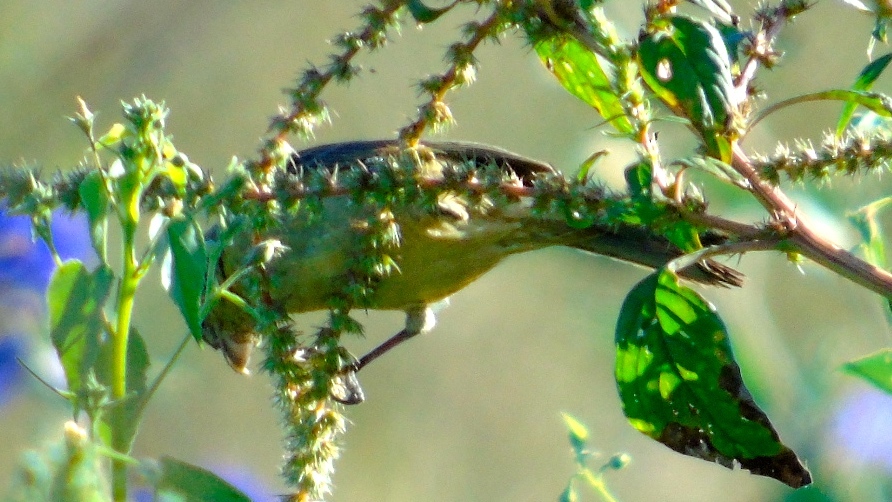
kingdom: Animalia
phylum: Chordata
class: Aves
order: Passeriformes
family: Fringillidae
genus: Spinus
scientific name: Spinus psaltria
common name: Lesser goldfinch
